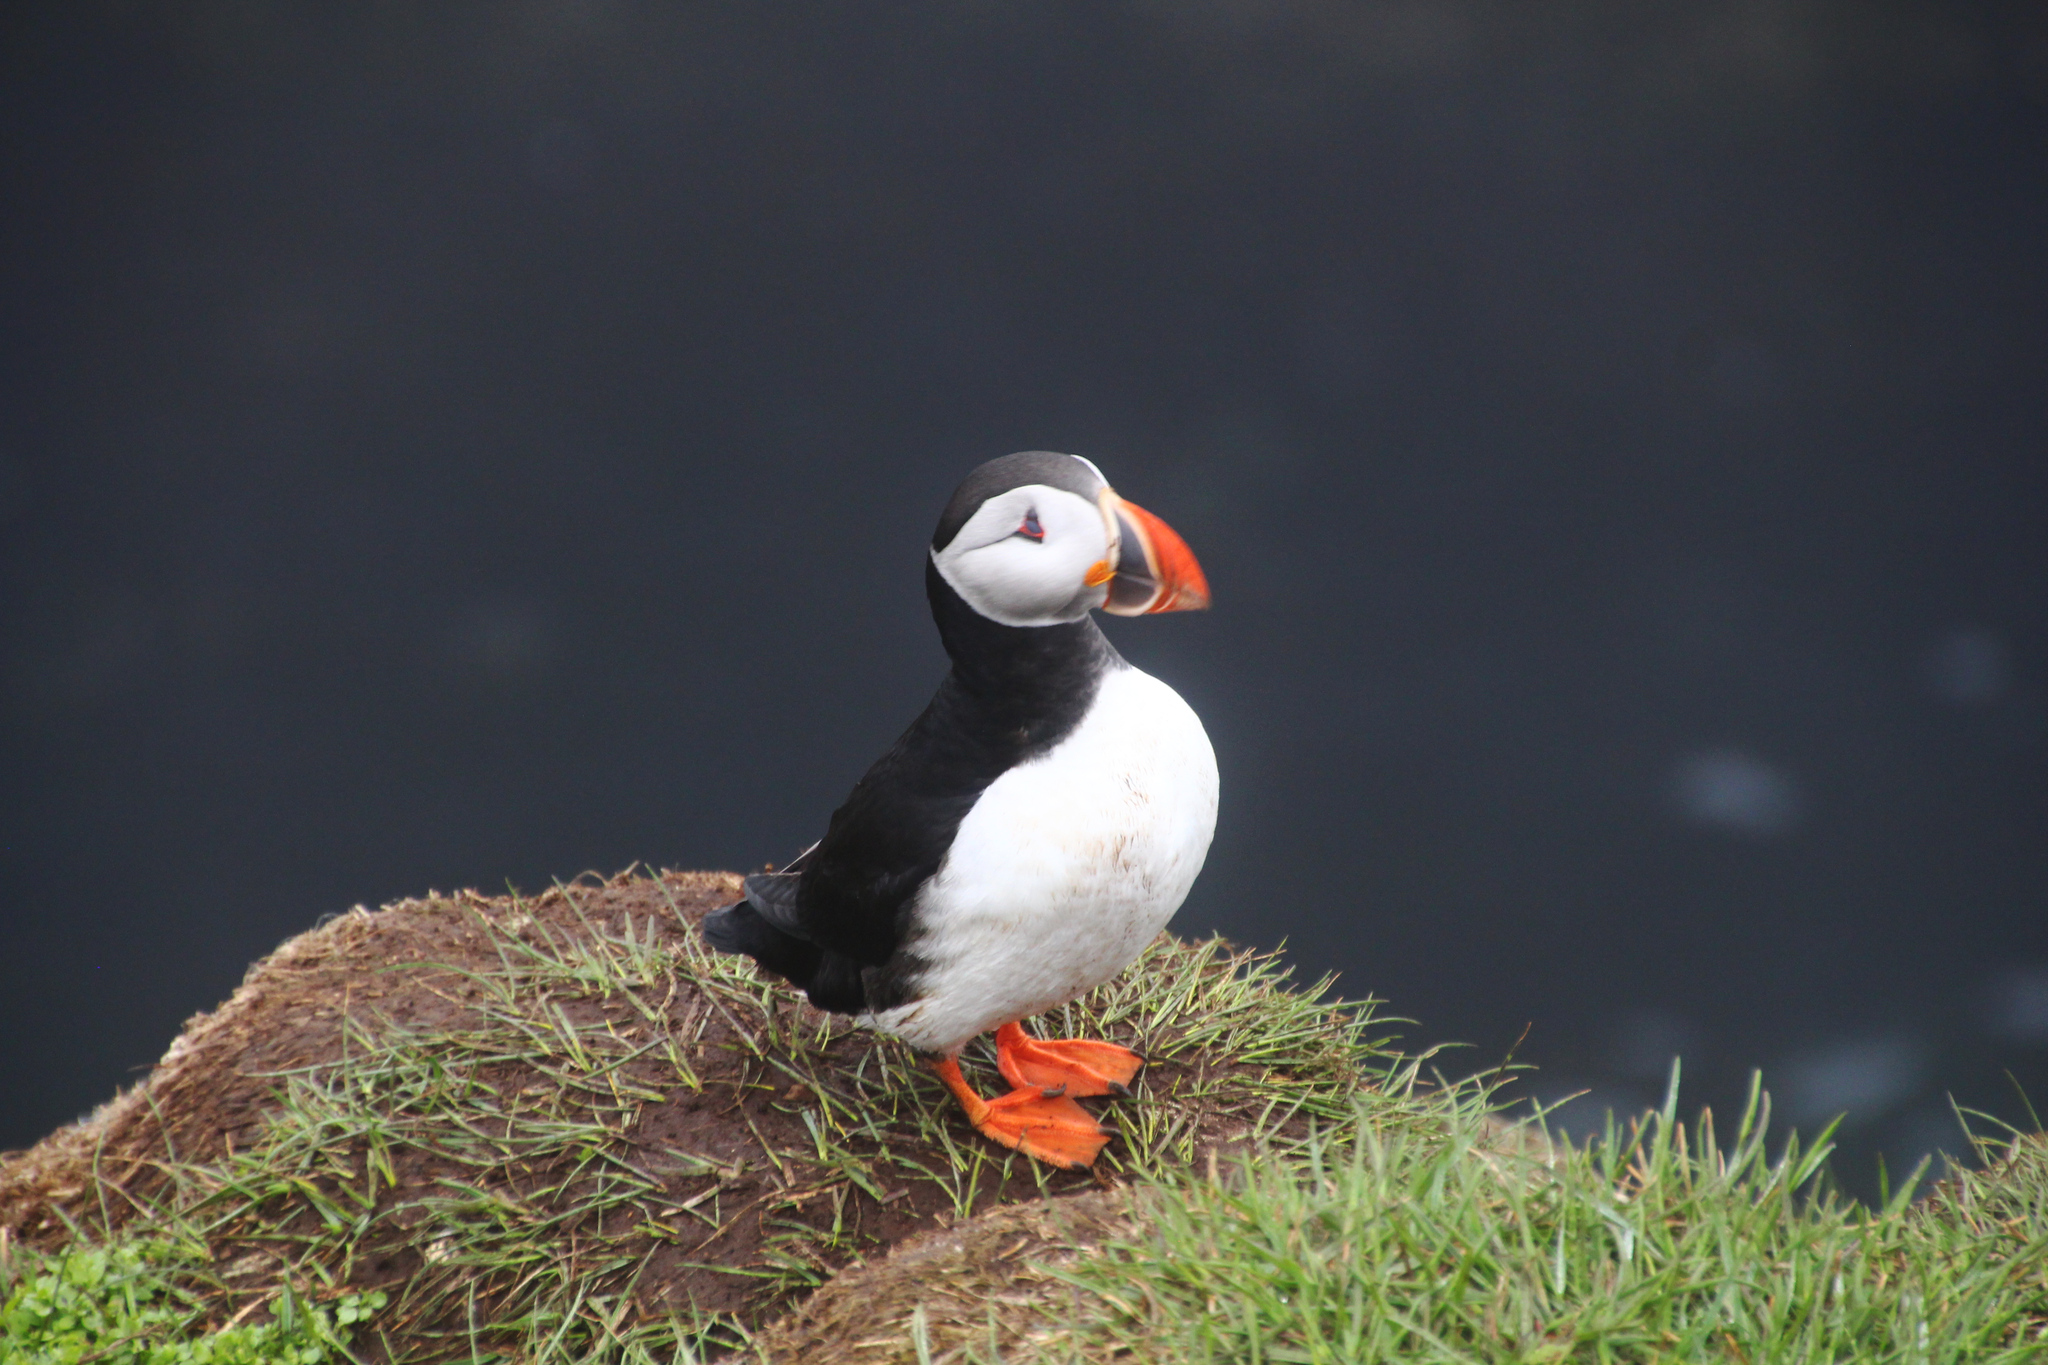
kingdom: Animalia
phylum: Chordata
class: Aves
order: Charadriiformes
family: Alcidae
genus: Fratercula
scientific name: Fratercula arctica
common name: Atlantic puffin
